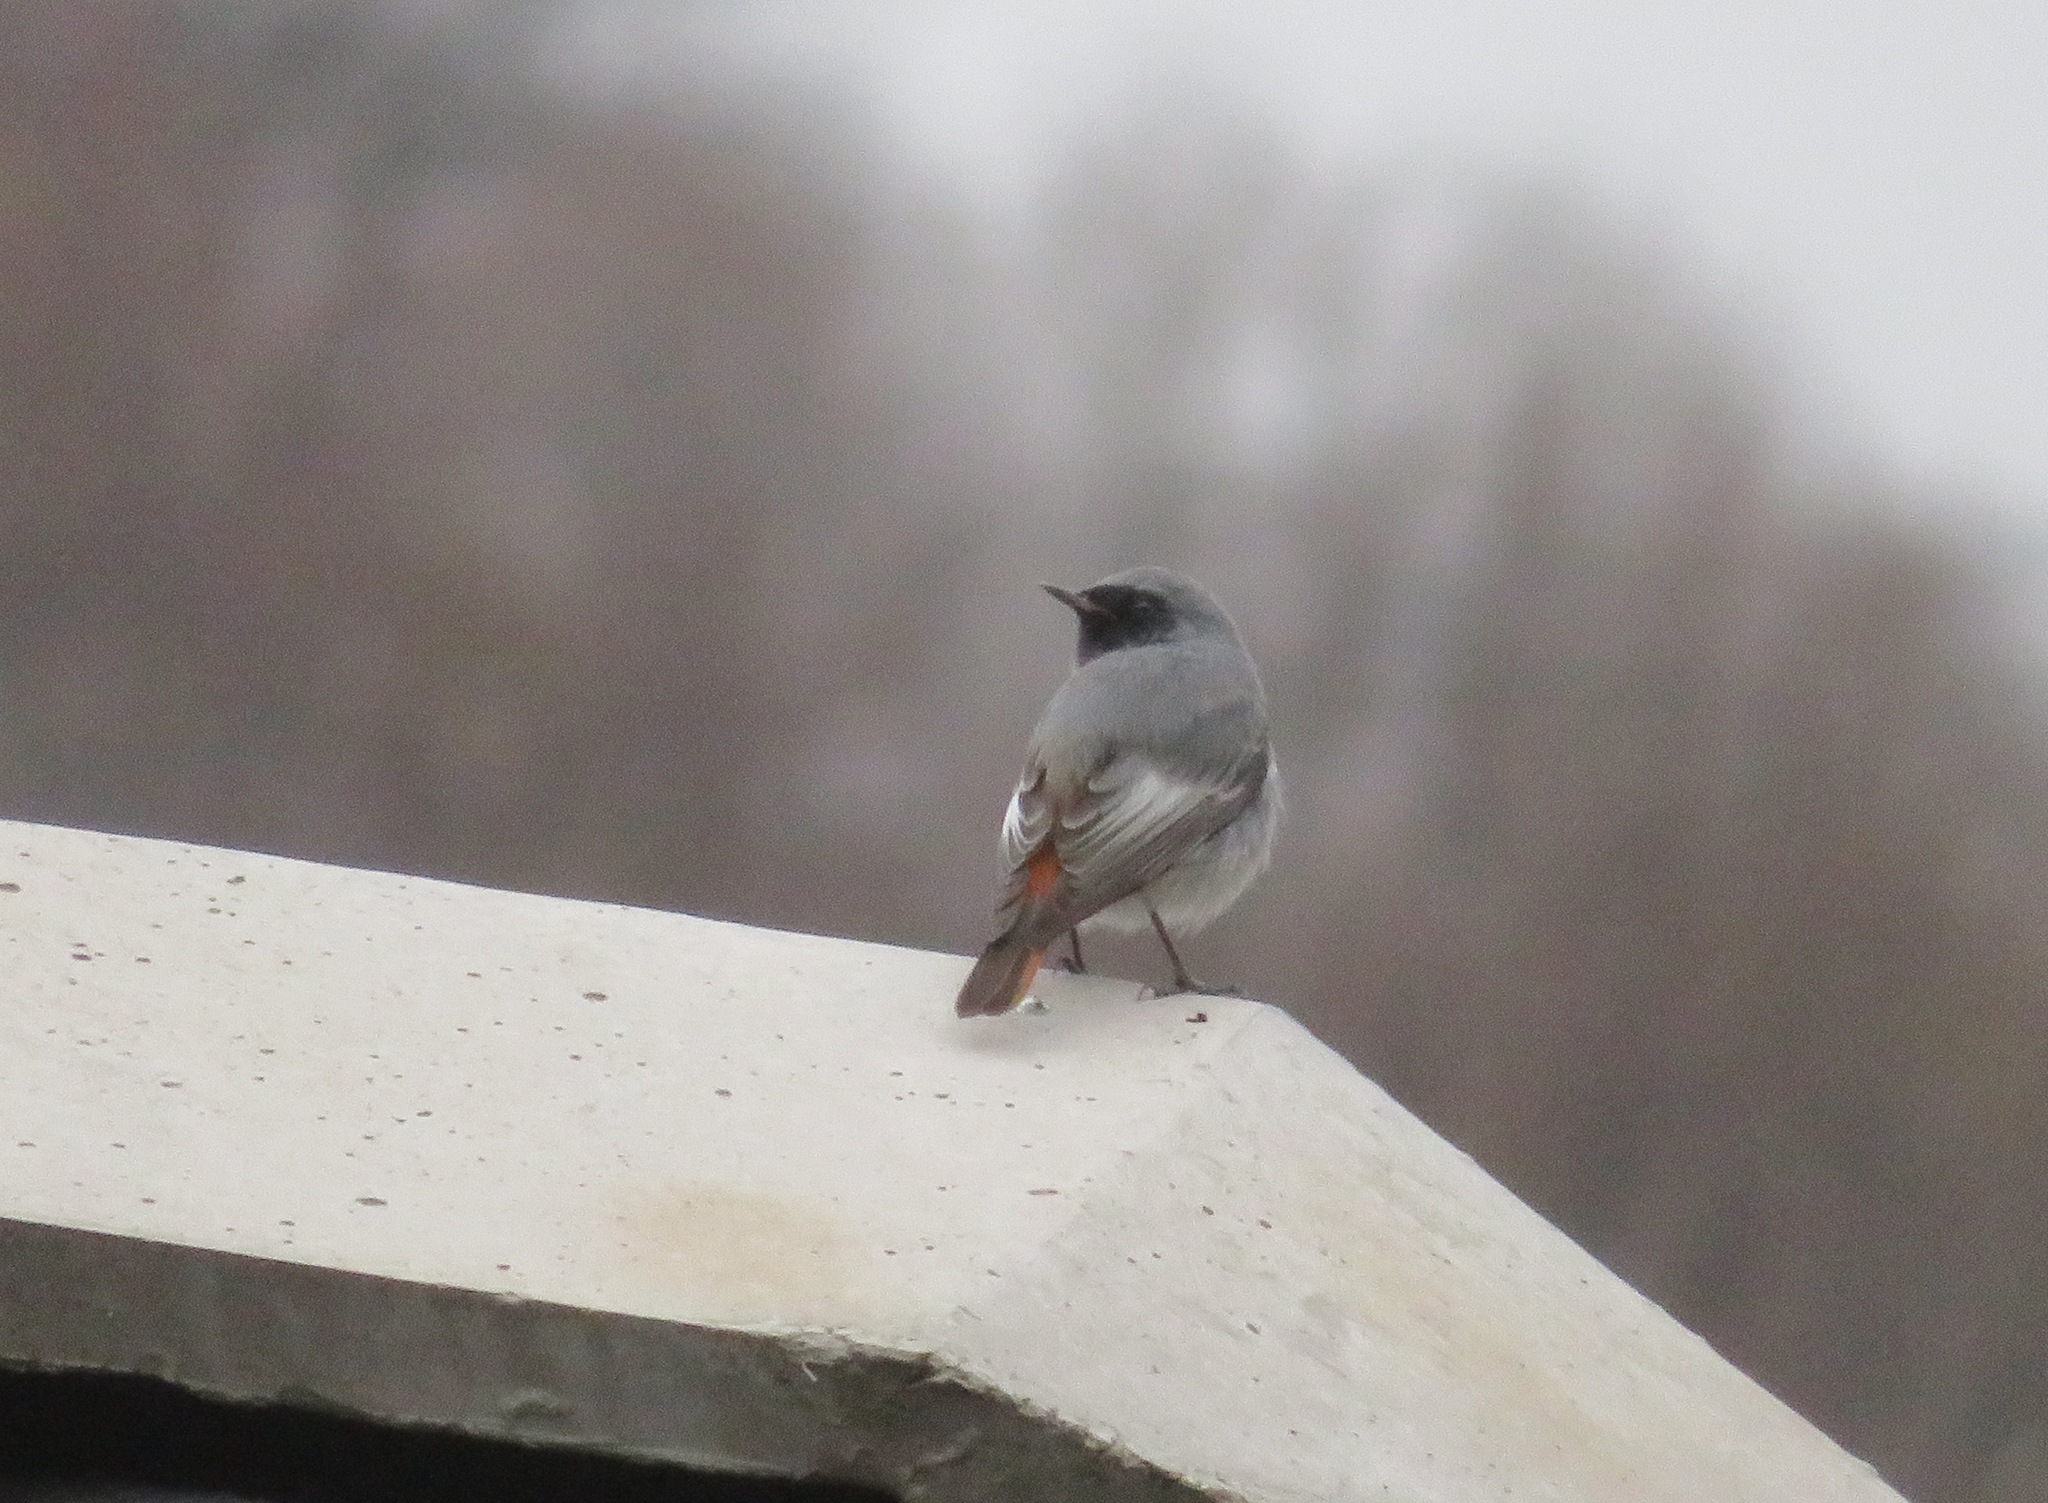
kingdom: Animalia
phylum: Chordata
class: Aves
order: Passeriformes
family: Muscicapidae
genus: Phoenicurus
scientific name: Phoenicurus ochruros
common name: Black redstart
